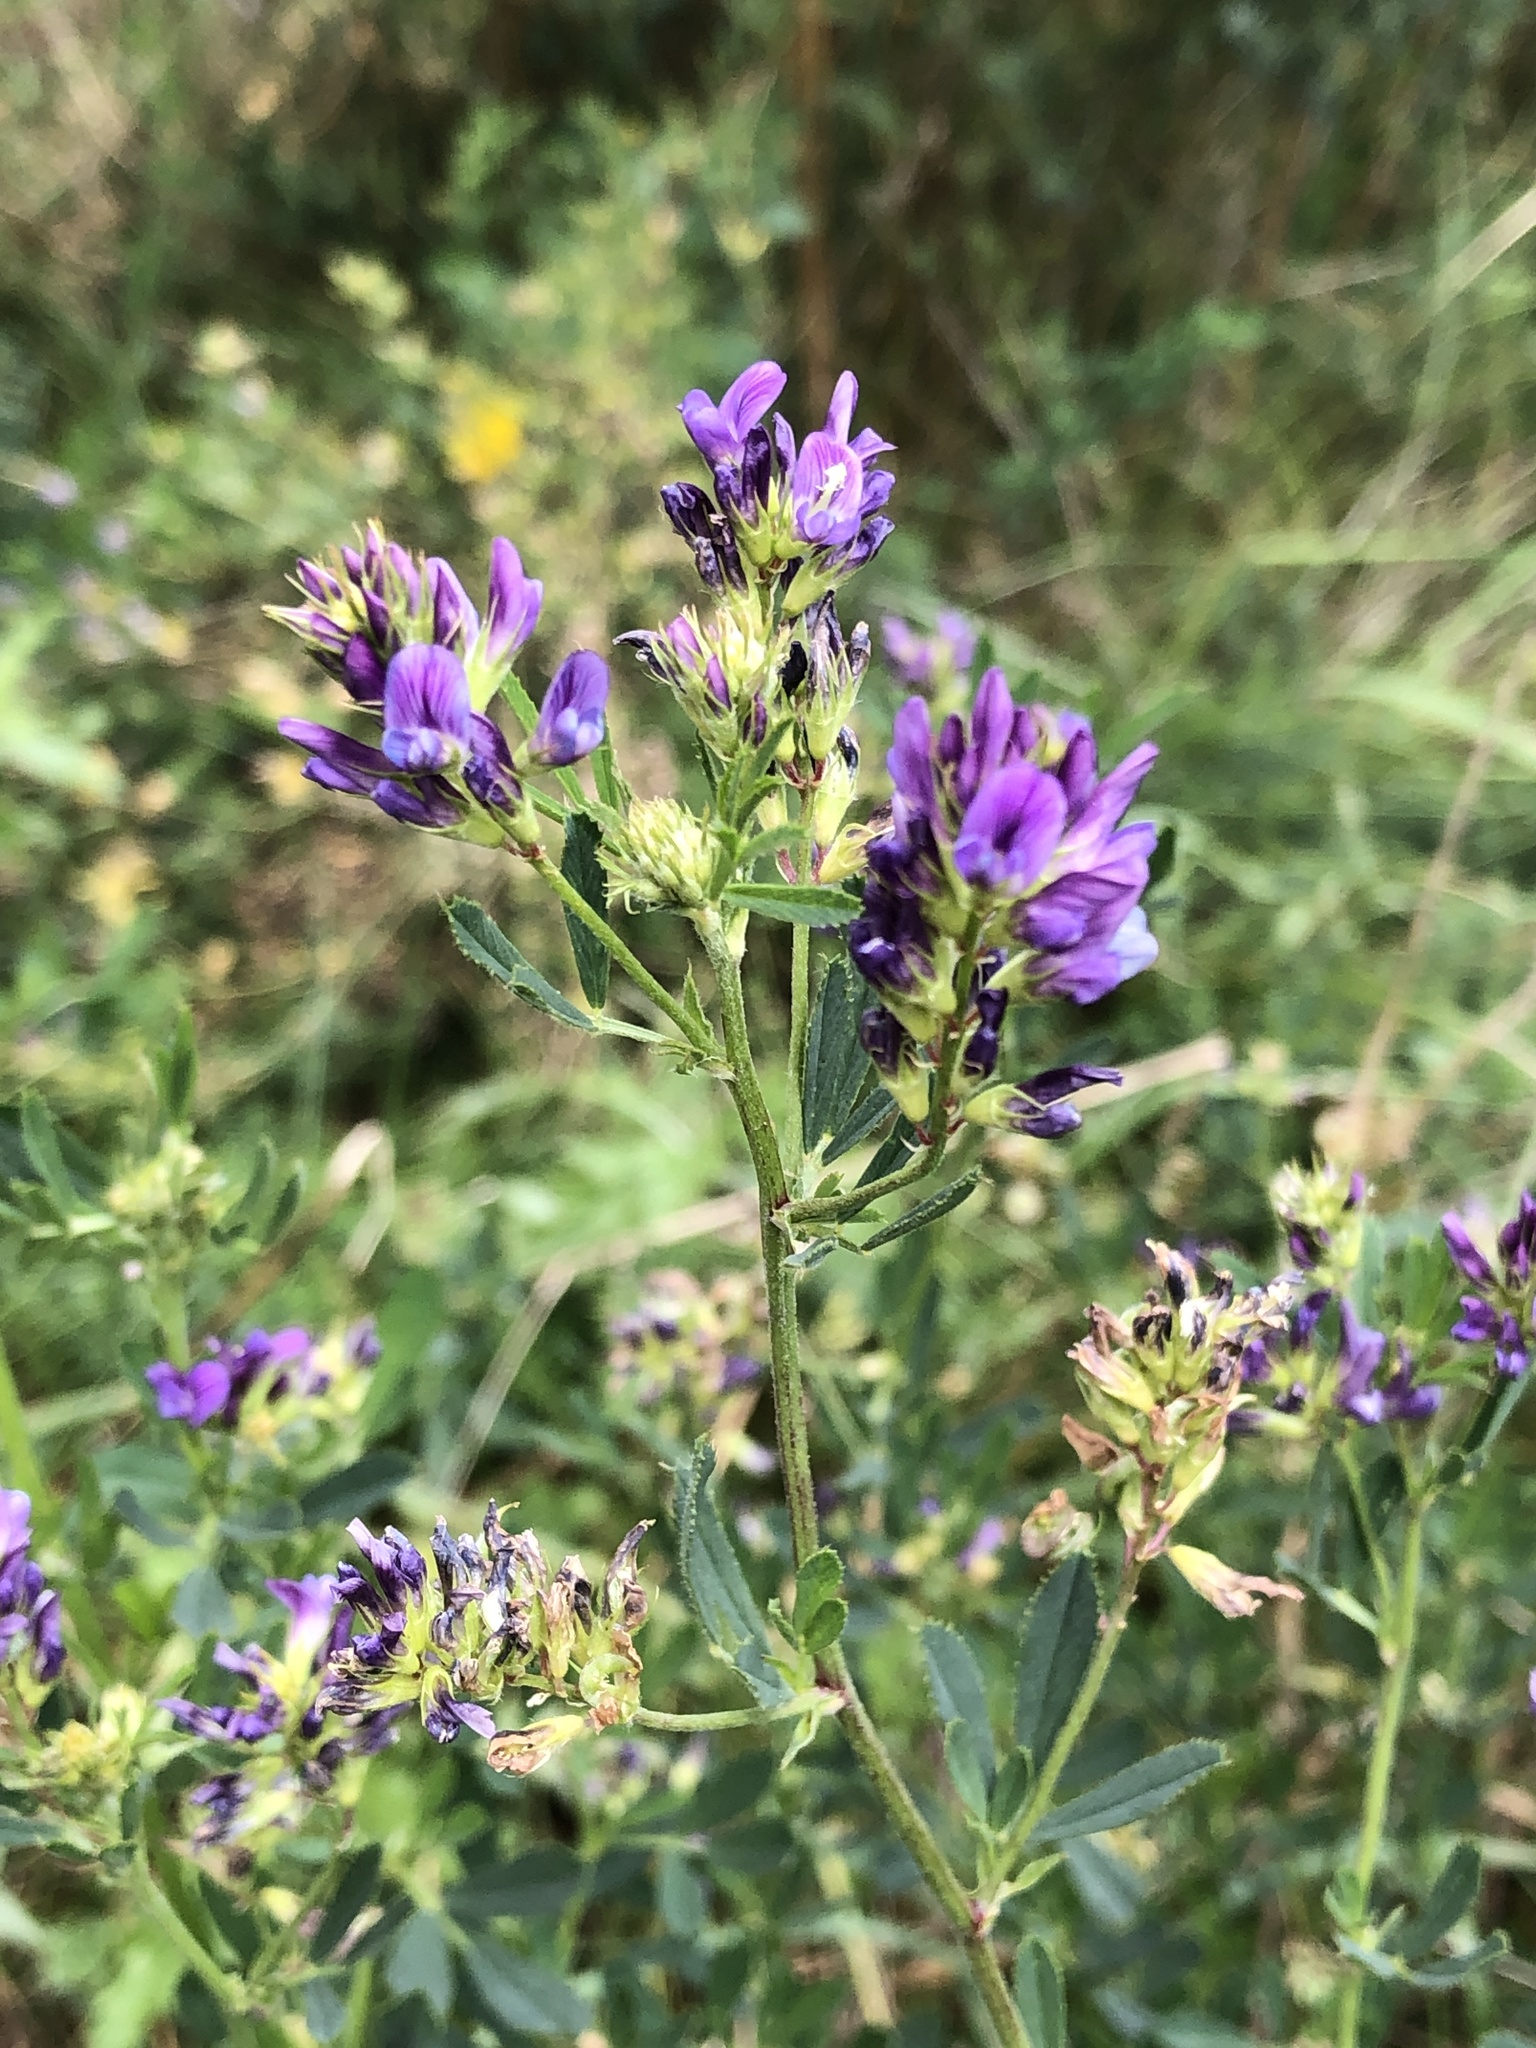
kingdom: Plantae
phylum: Tracheophyta
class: Magnoliopsida
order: Fabales
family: Fabaceae
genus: Medicago
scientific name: Medicago sativa
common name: Alfalfa
